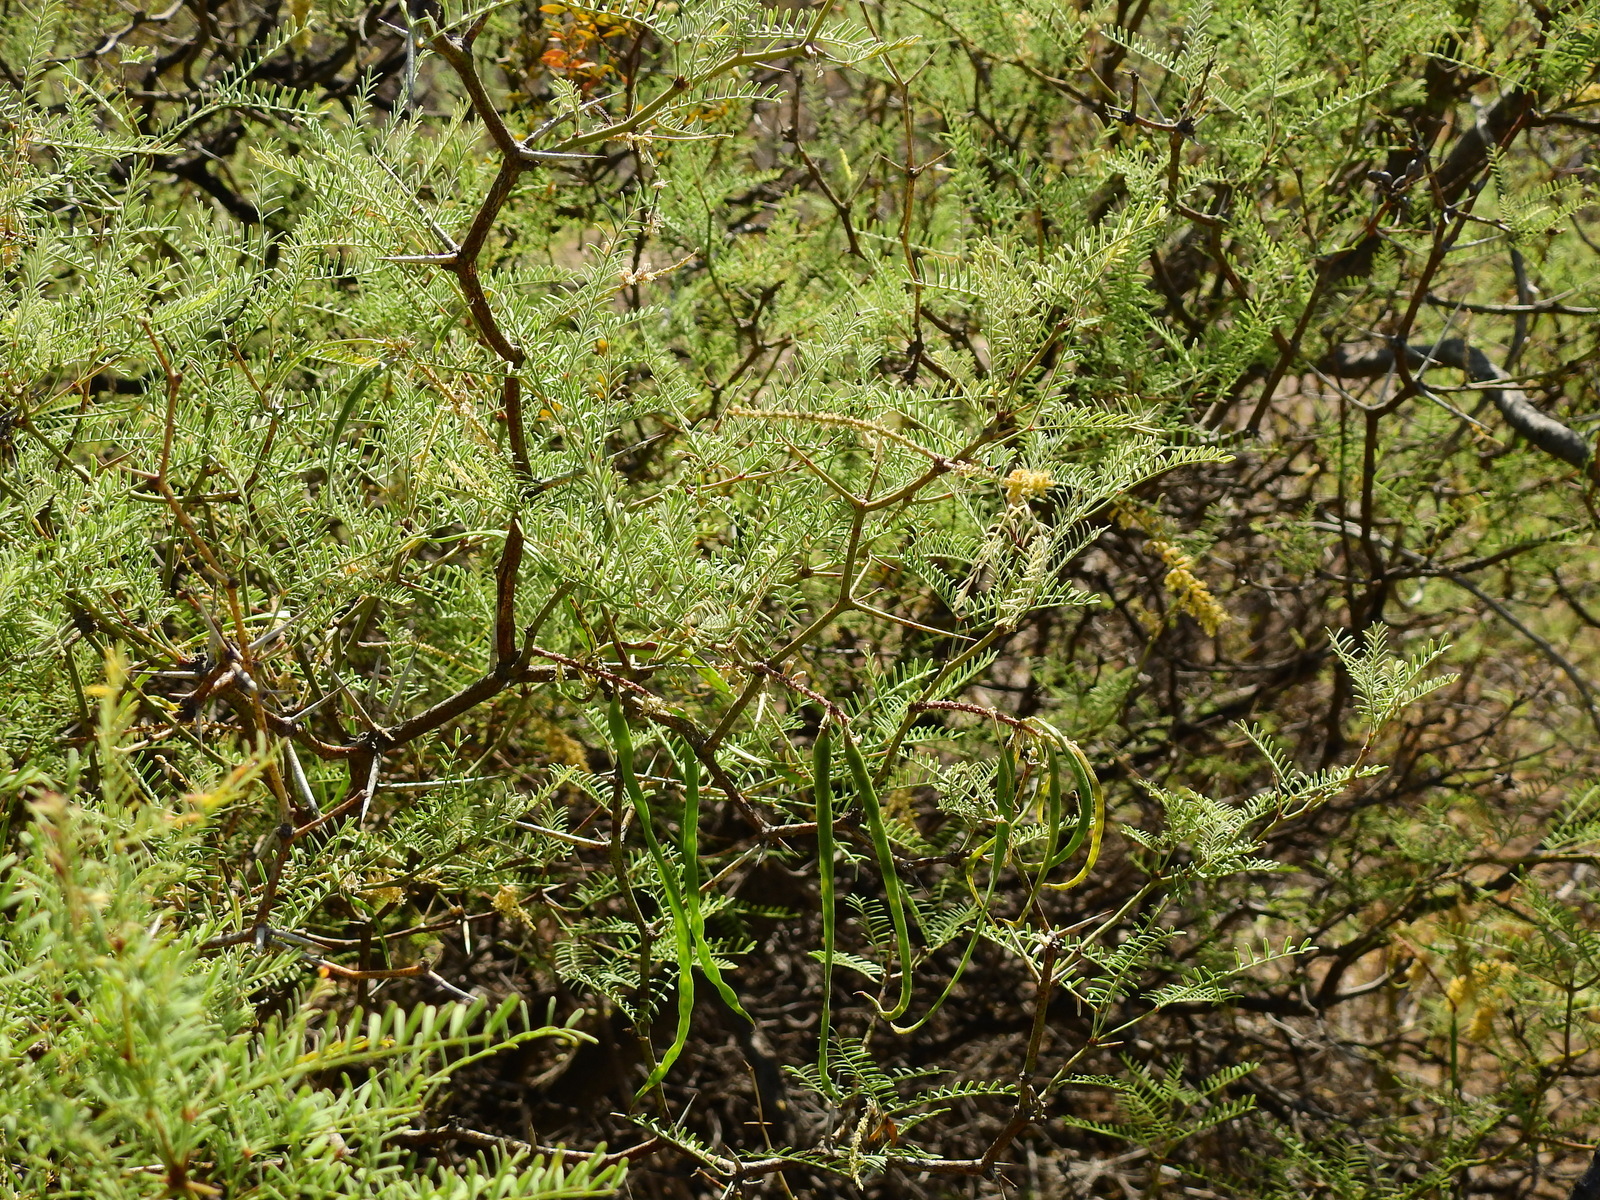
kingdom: Plantae
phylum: Tracheophyta
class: Magnoliopsida
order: Fabales
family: Fabaceae
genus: Prosopis
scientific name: Prosopis flexuosa
